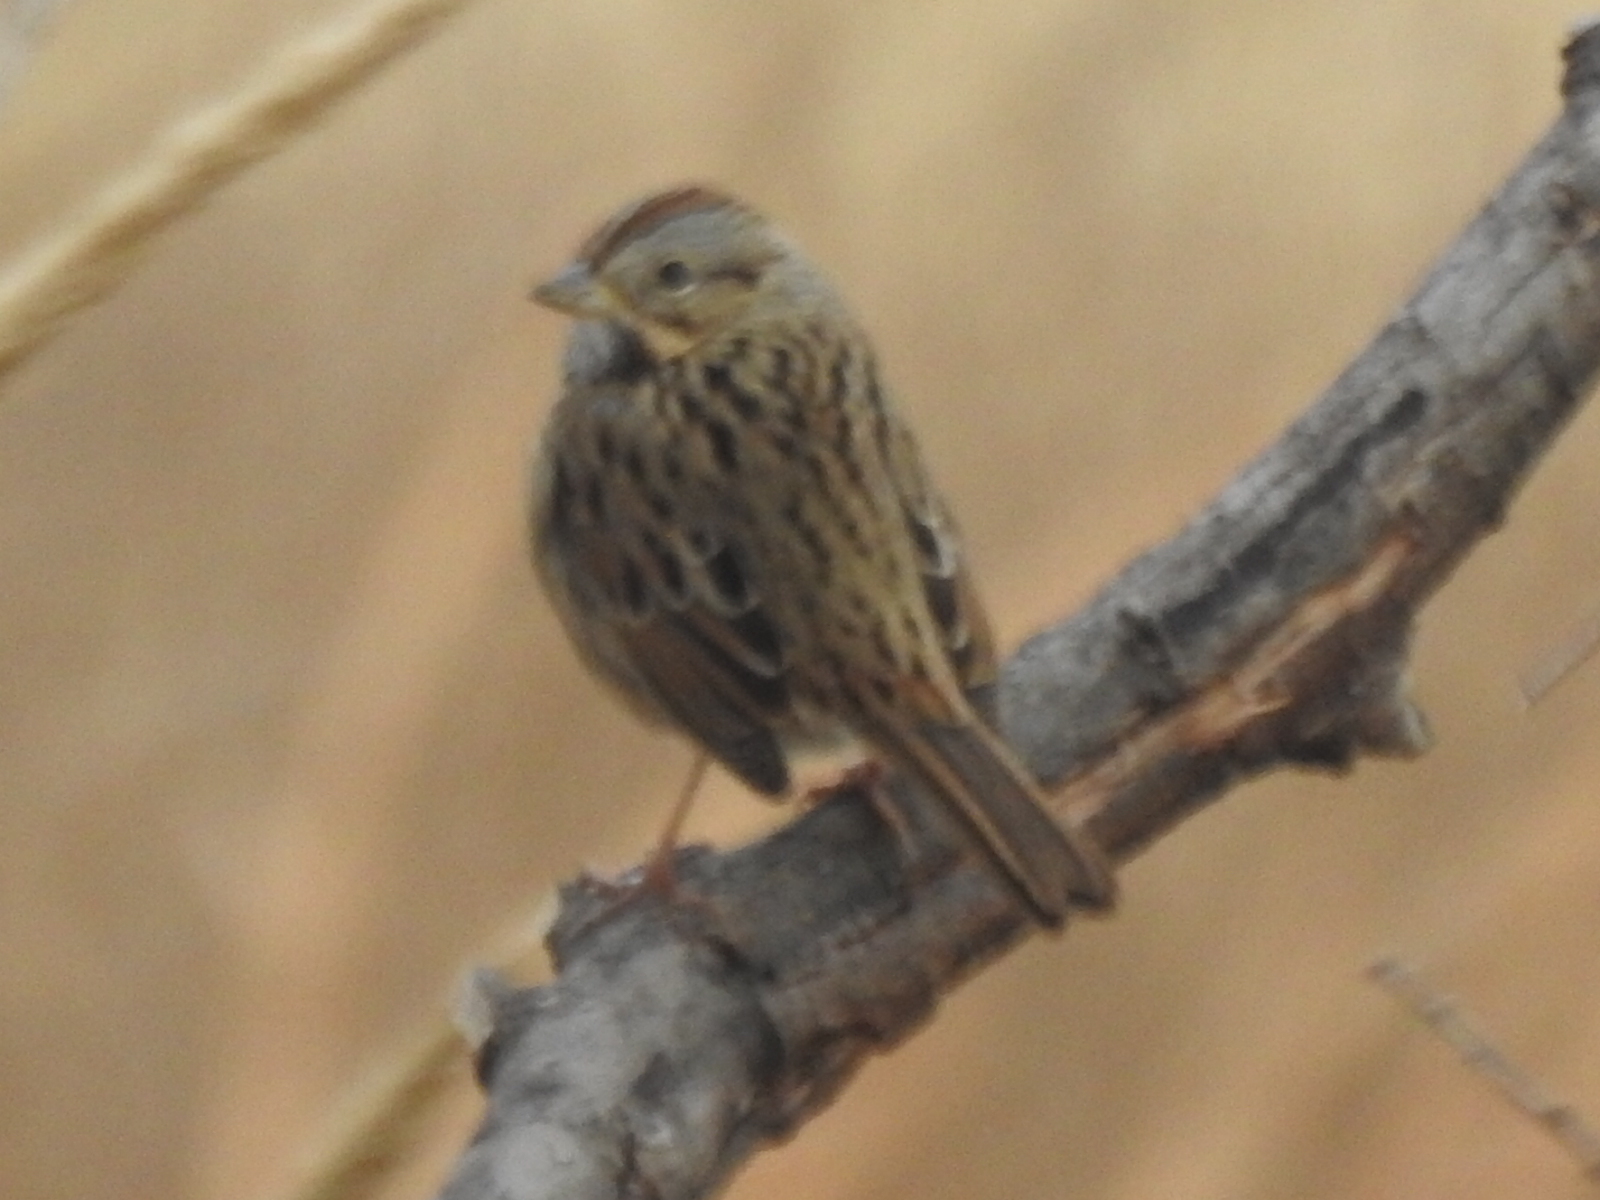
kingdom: Animalia
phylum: Chordata
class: Aves
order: Passeriformes
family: Passerellidae
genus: Melospiza
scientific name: Melospiza lincolnii
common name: Lincoln's sparrow
